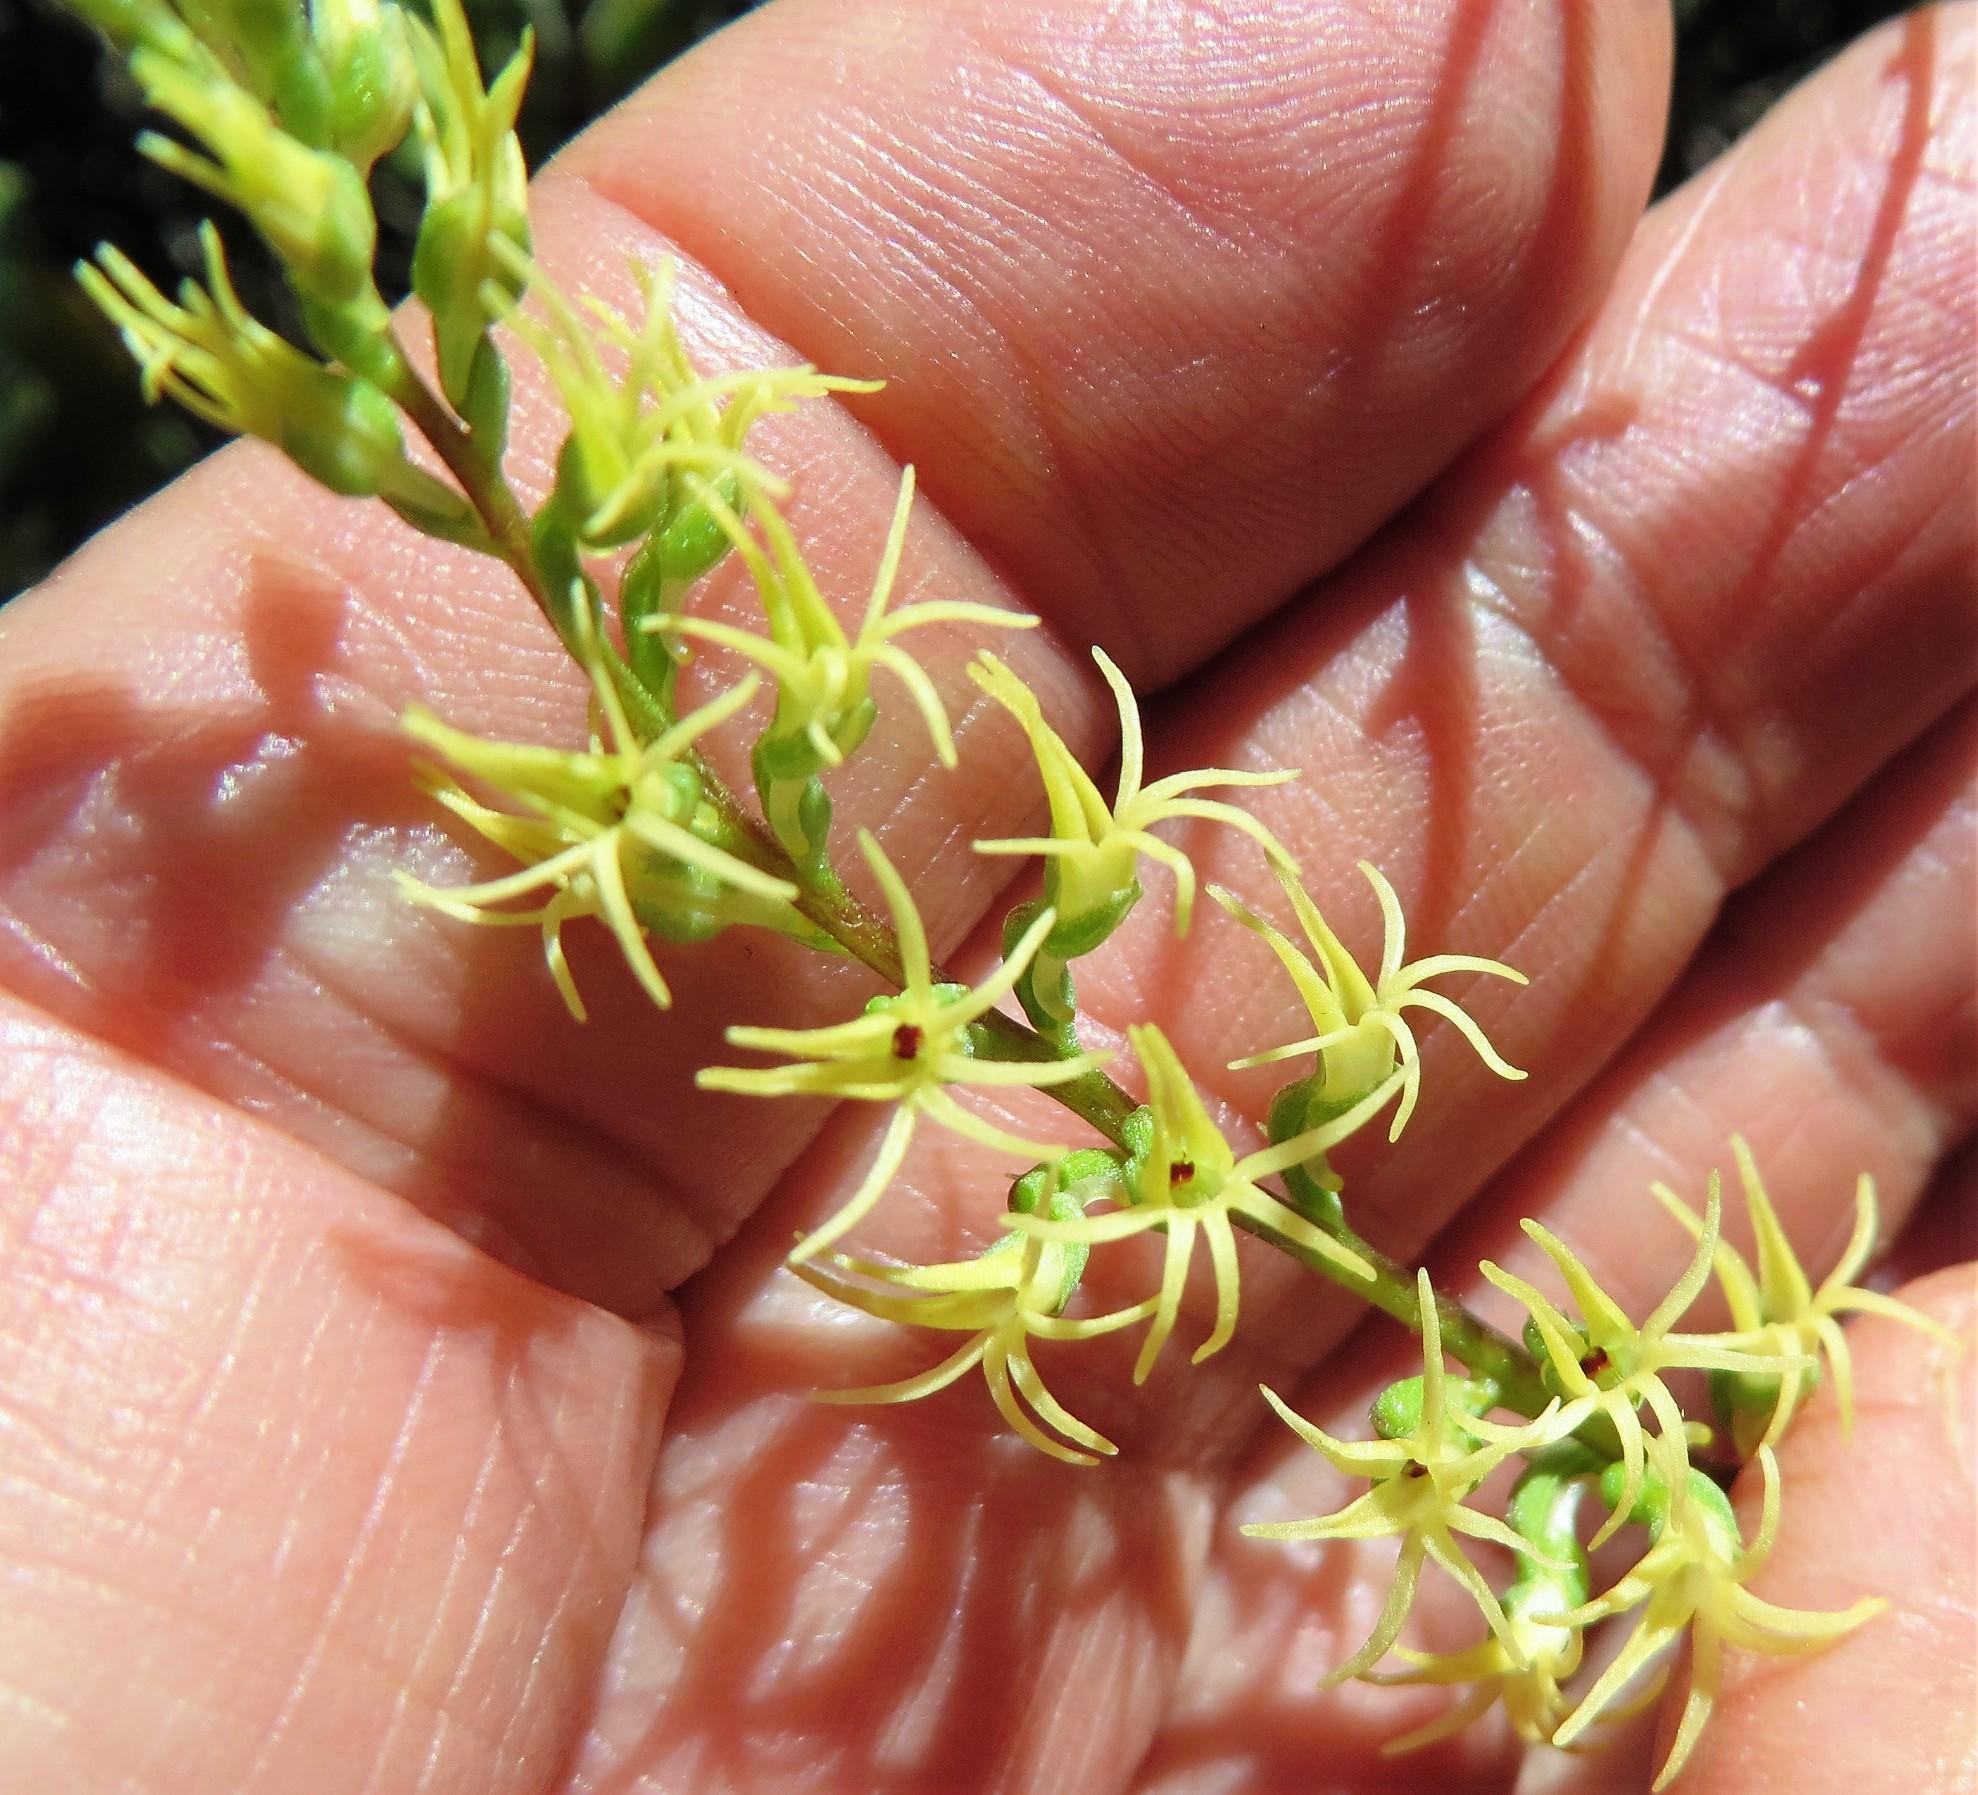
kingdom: Plantae
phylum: Tracheophyta
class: Liliopsida
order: Asparagales
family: Orchidaceae
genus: Holothrix
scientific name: Holothrix secunda
